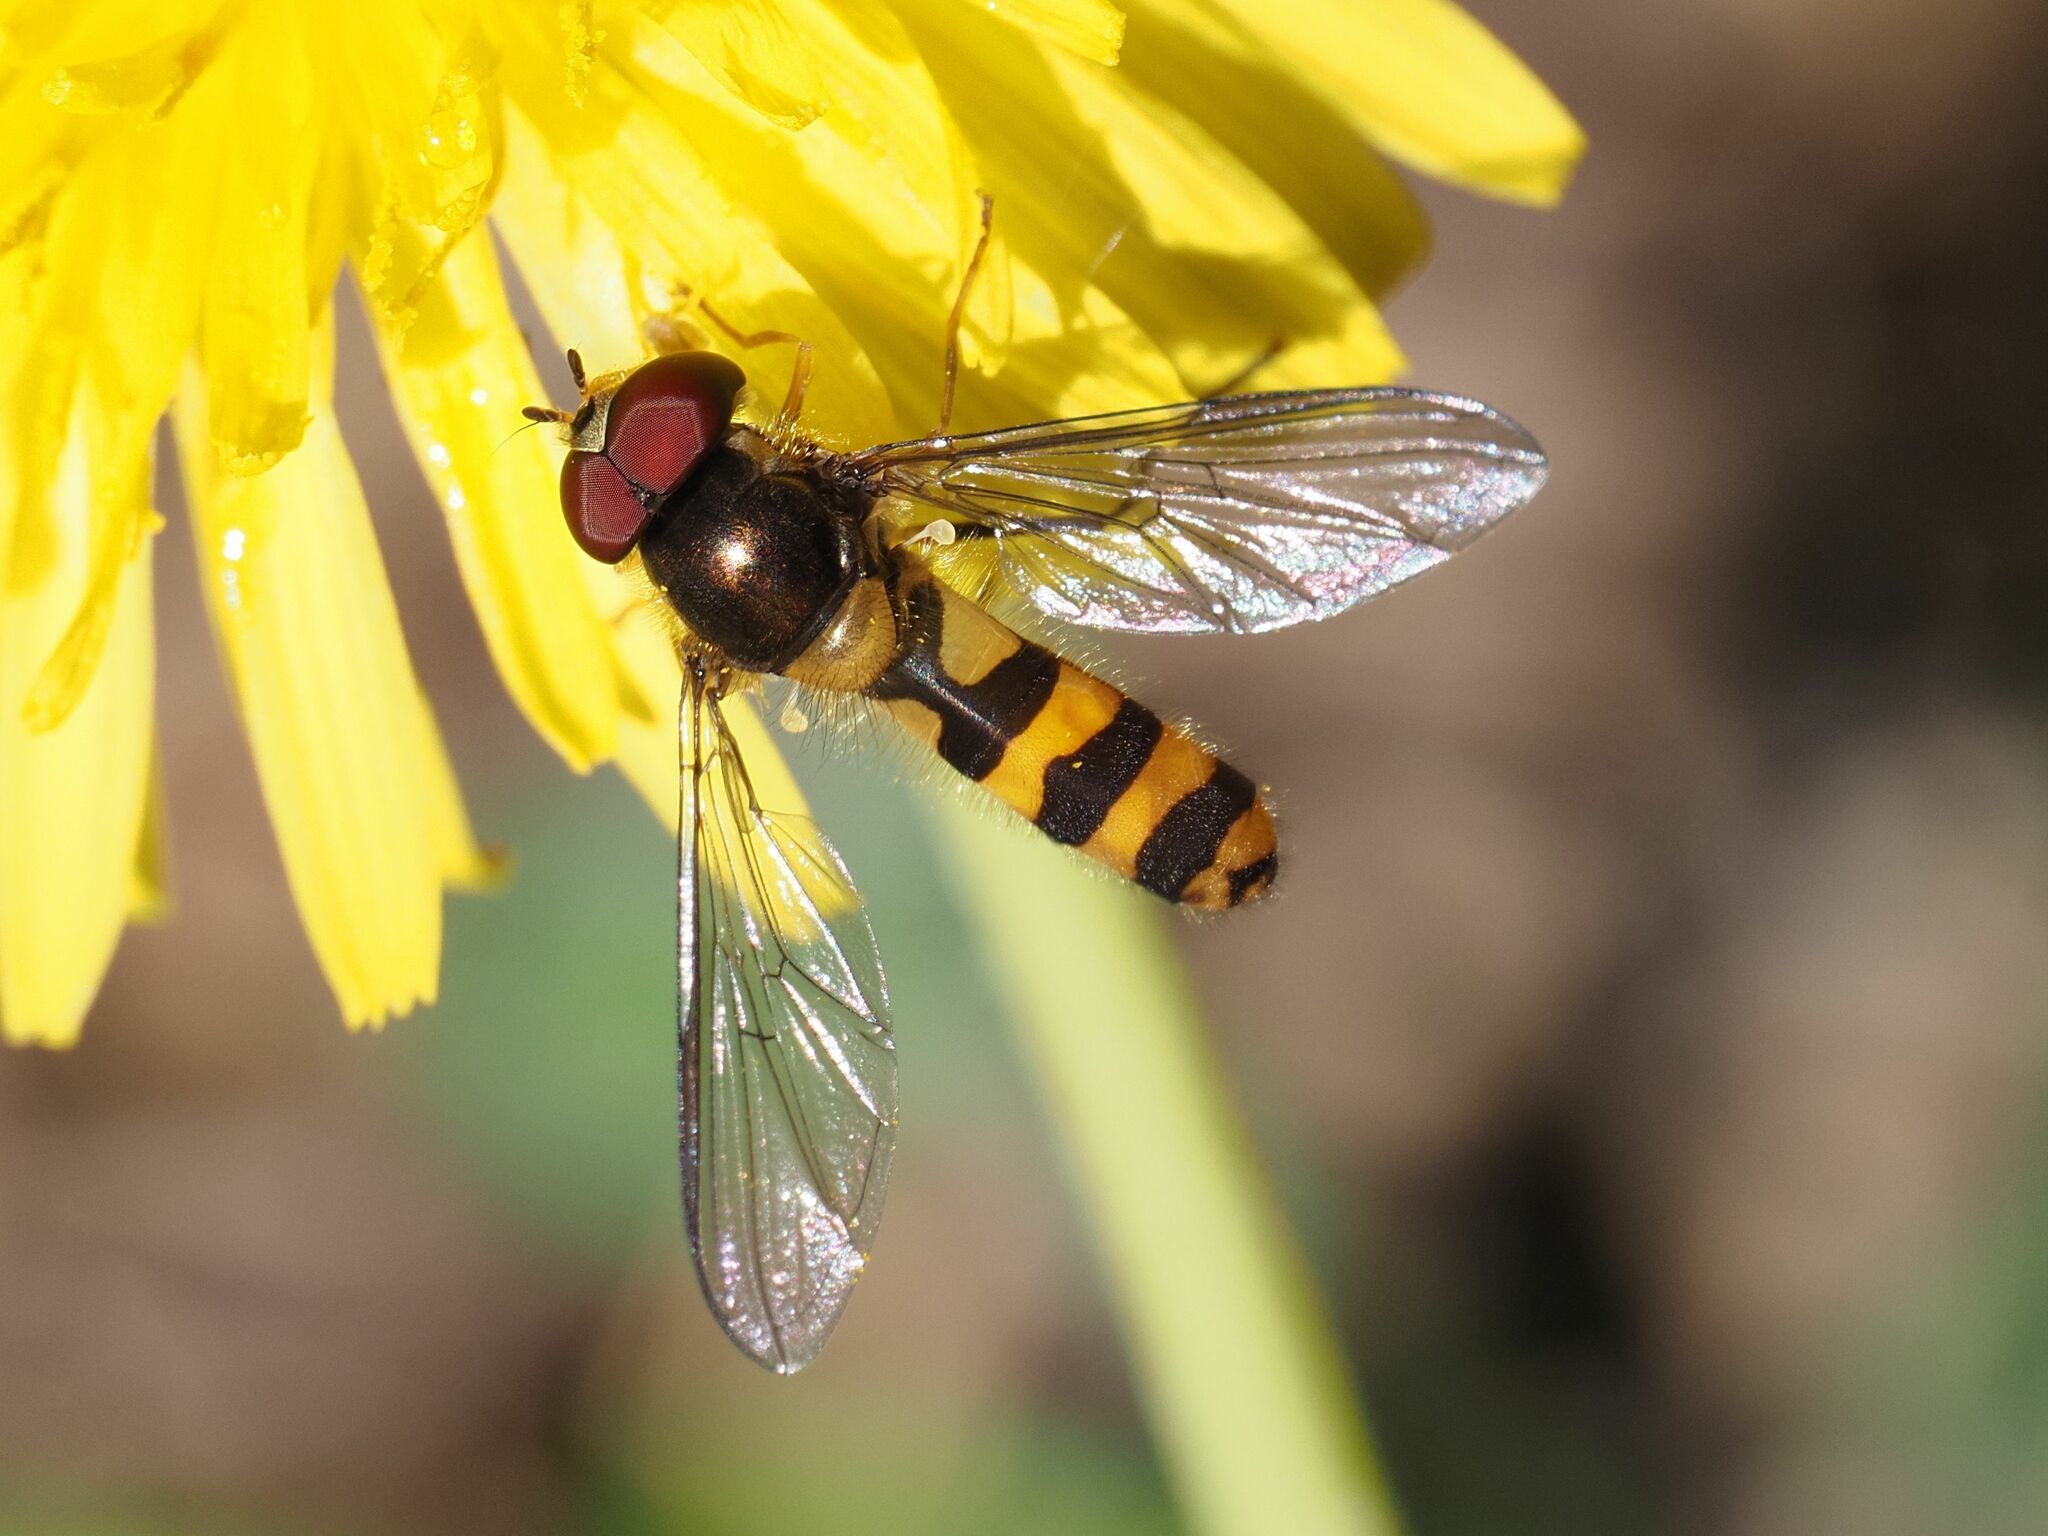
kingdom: Animalia
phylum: Arthropoda
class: Insecta
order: Diptera
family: Syrphidae
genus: Meliscaeva
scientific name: Meliscaeva cinctella
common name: American thintail fly
